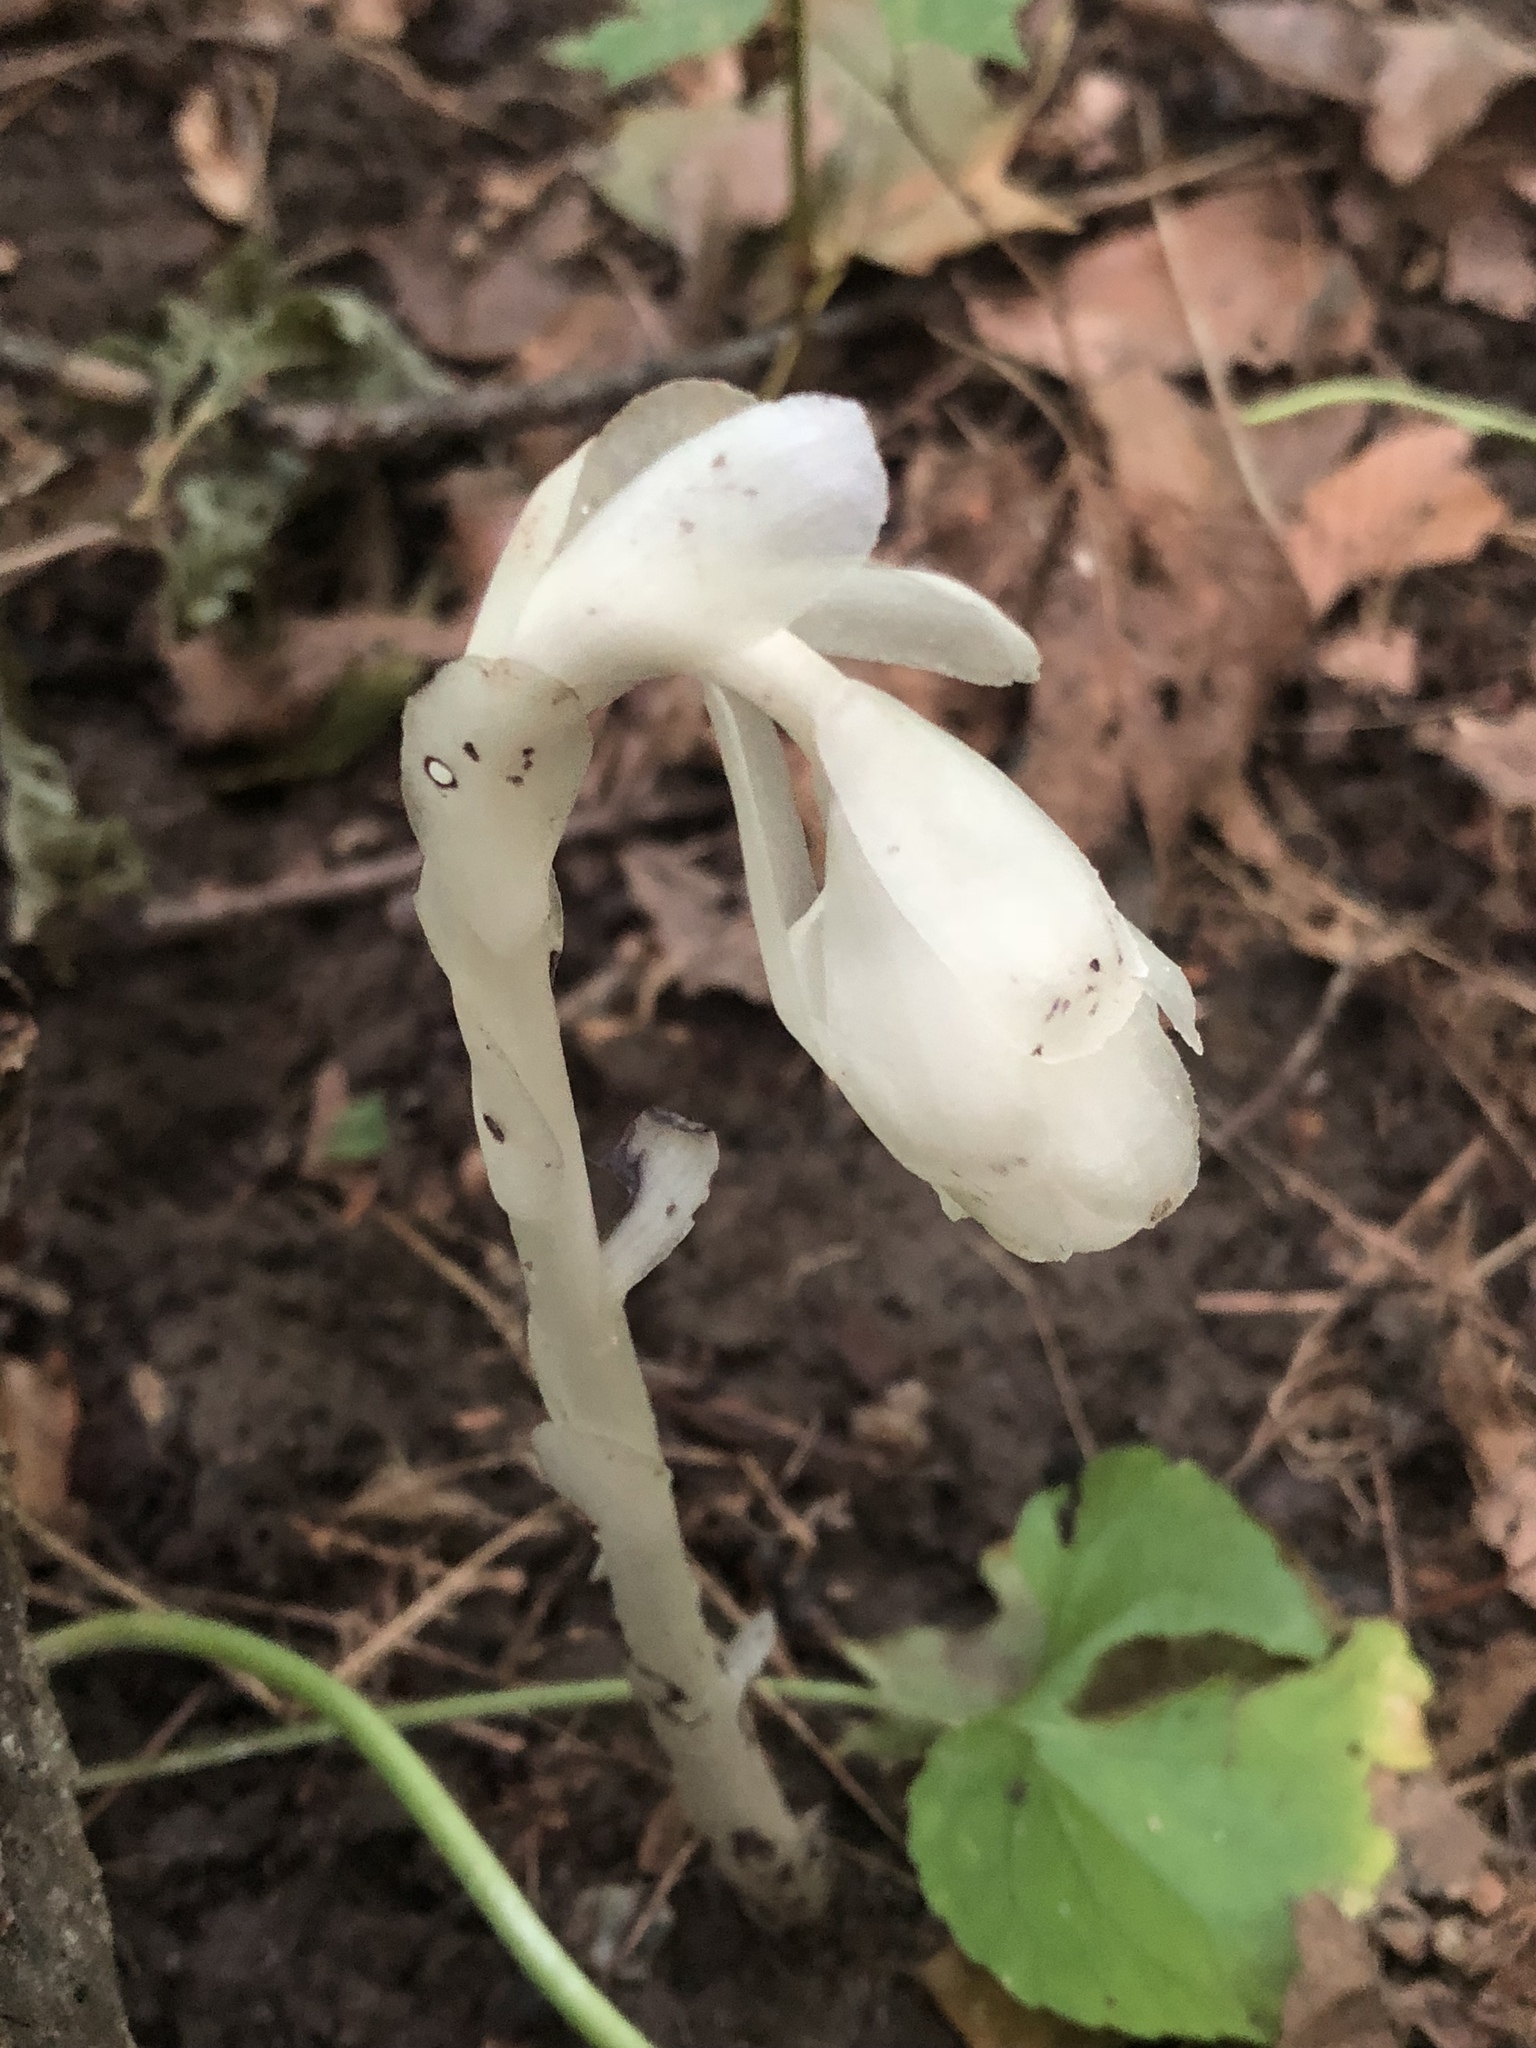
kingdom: Plantae
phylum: Tracheophyta
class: Magnoliopsida
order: Ericales
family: Ericaceae
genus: Monotropa
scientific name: Monotropa uniflora
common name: Convulsion root
